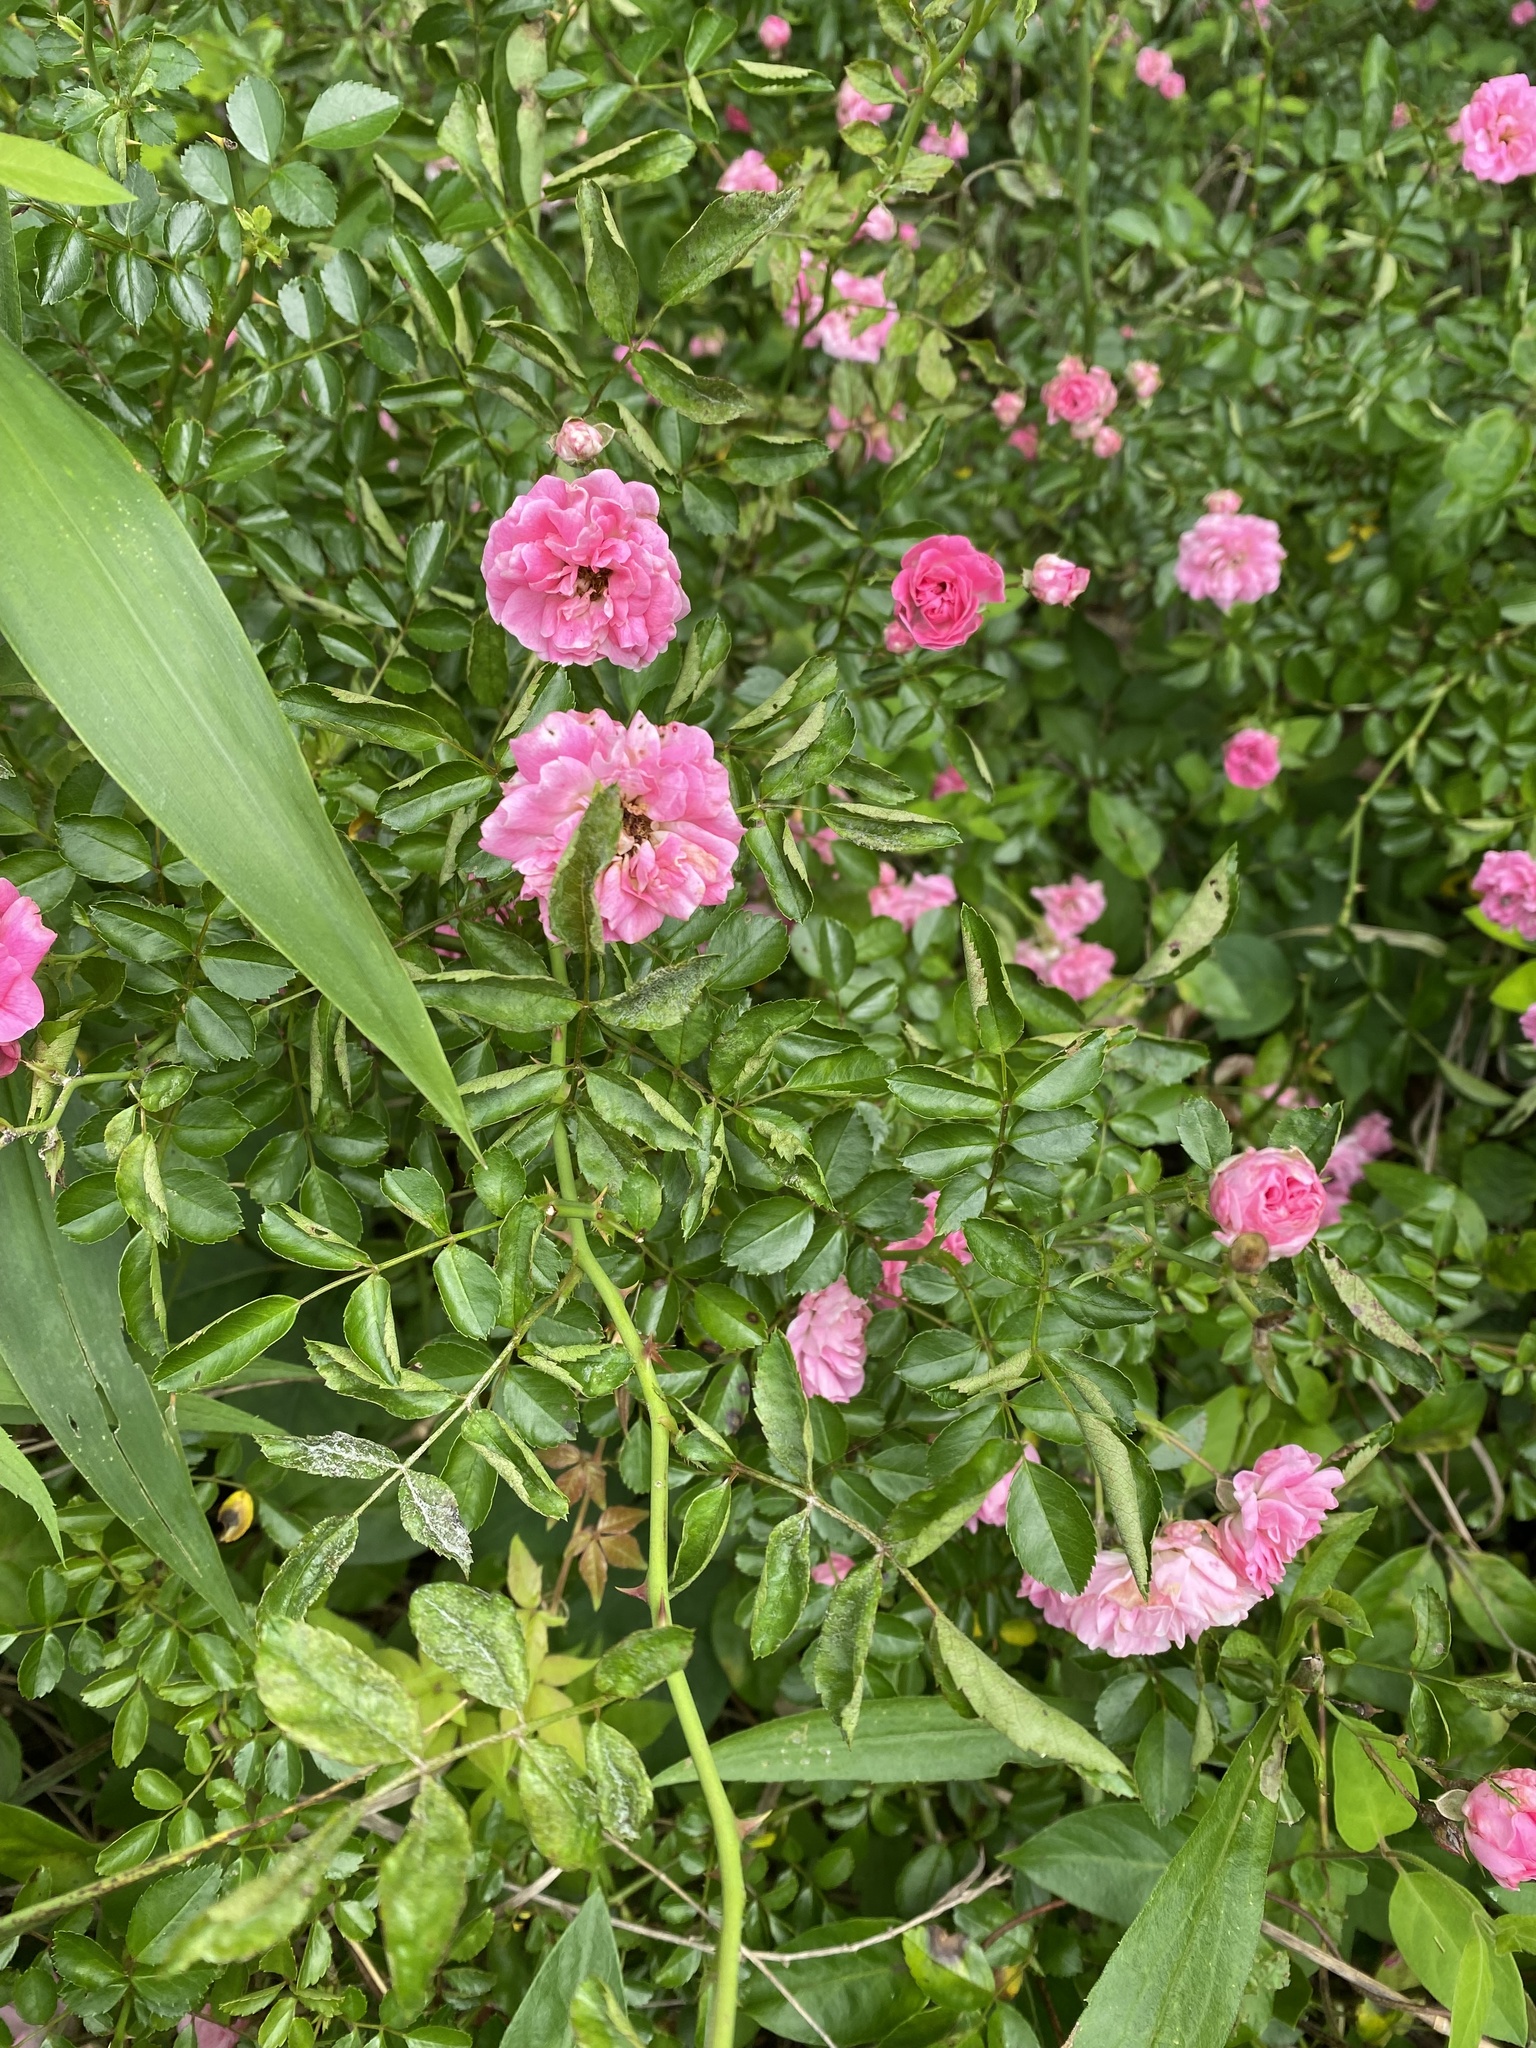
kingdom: Plantae
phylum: Tracheophyta
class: Magnoliopsida
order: Rosales
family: Rosaceae
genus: Rosa
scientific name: Rosa
